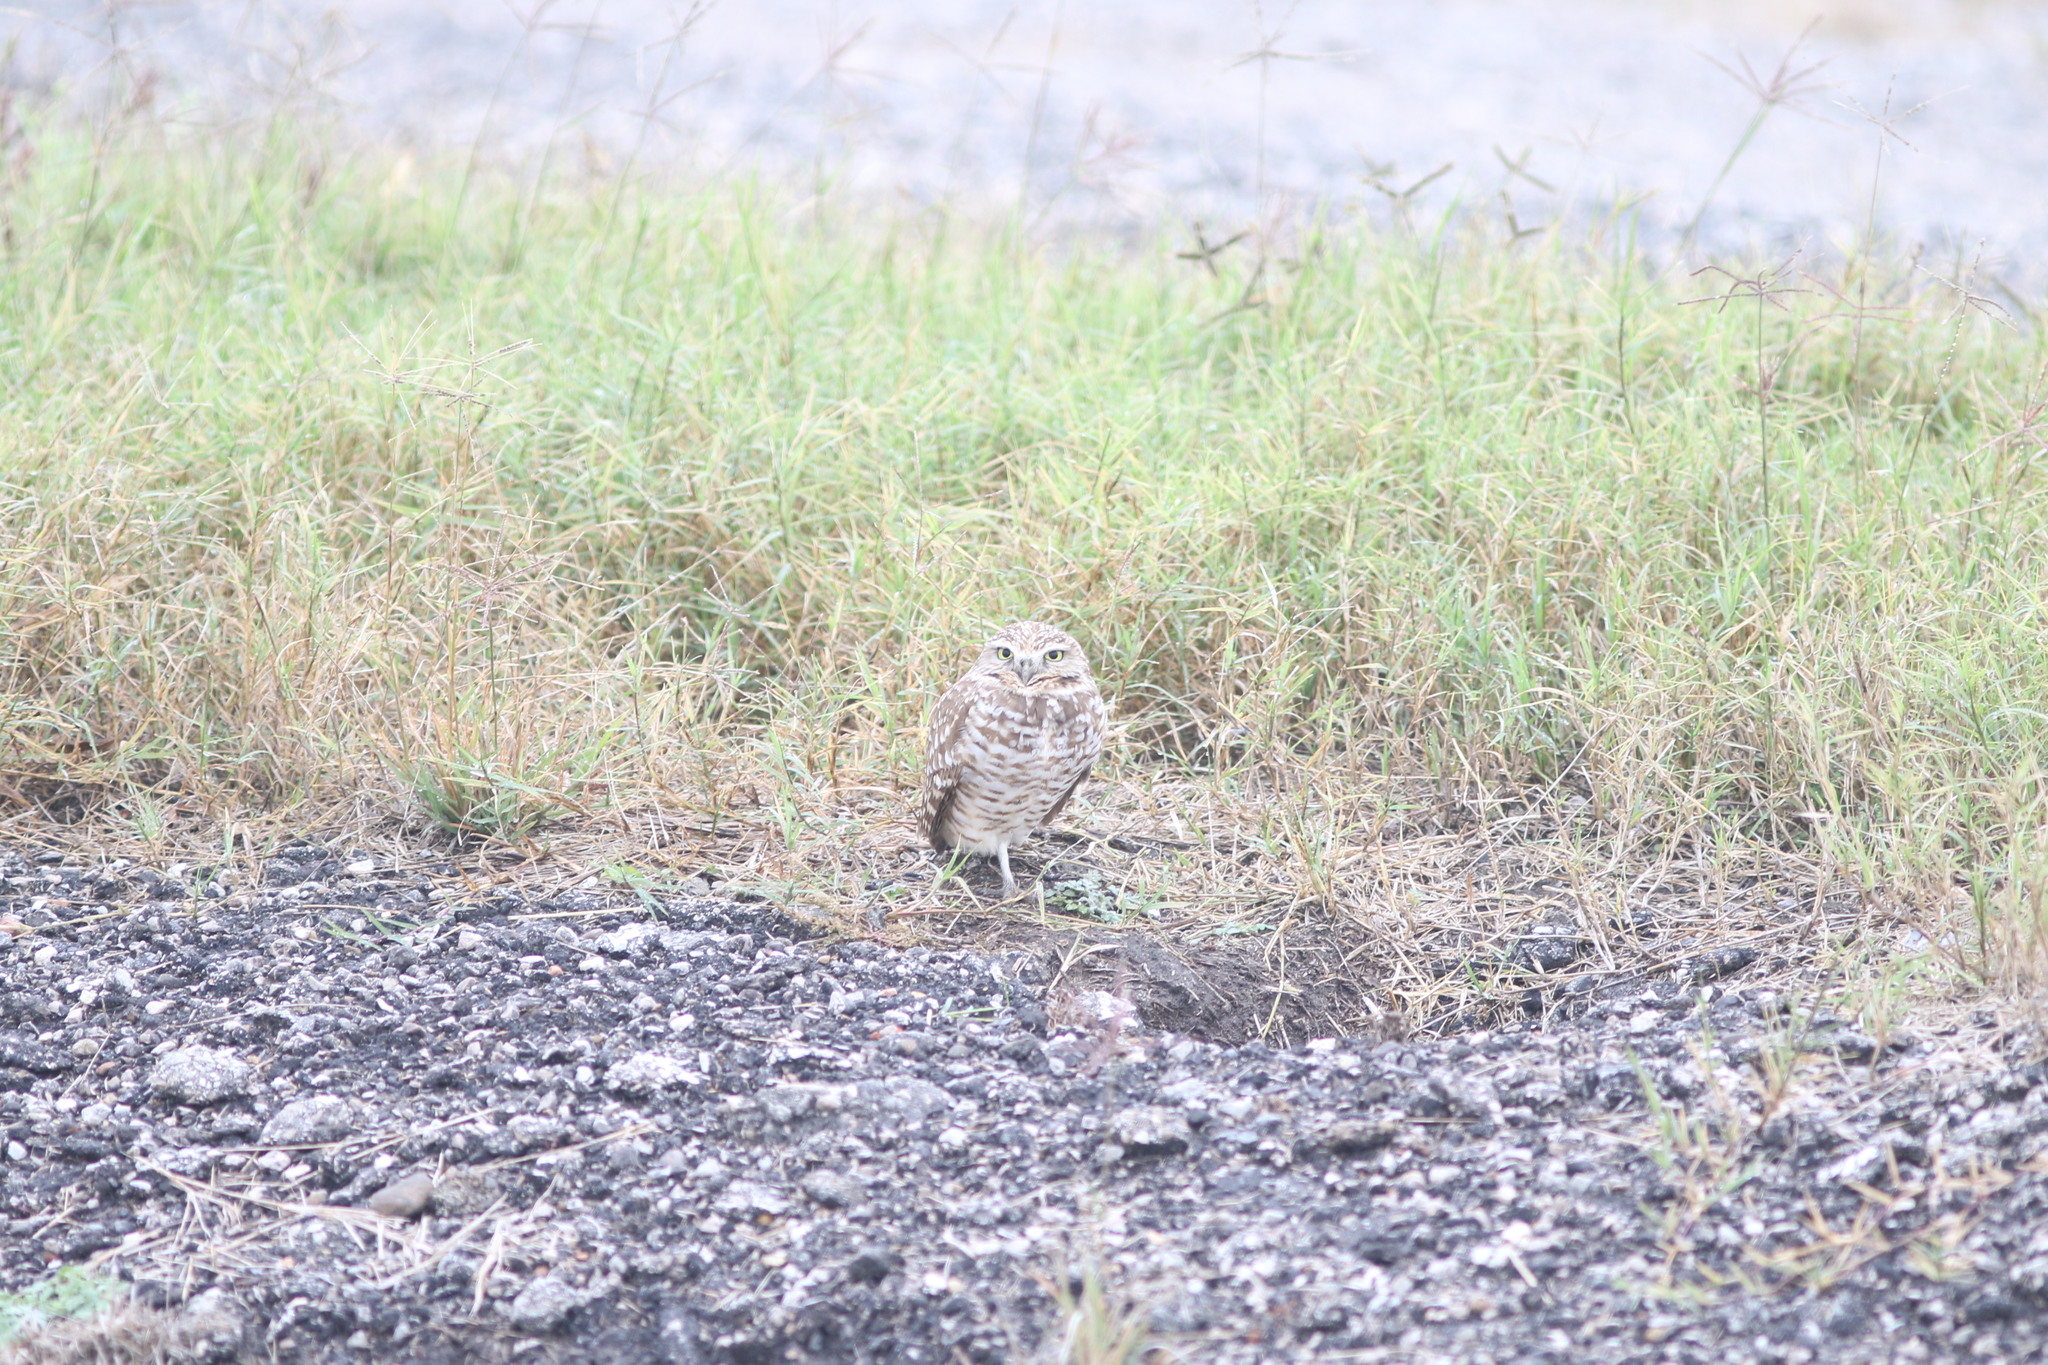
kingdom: Animalia
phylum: Chordata
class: Aves
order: Strigiformes
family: Strigidae
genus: Athene
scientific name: Athene cunicularia
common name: Burrowing owl
